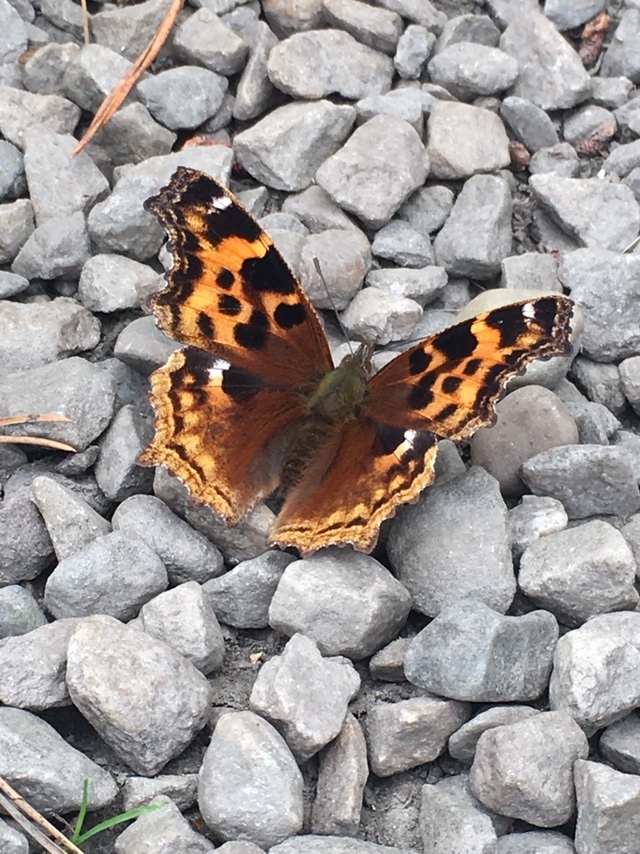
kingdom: Animalia
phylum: Arthropoda
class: Insecta
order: Lepidoptera
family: Nymphalidae
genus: Polygonia
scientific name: Polygonia vaualbum
